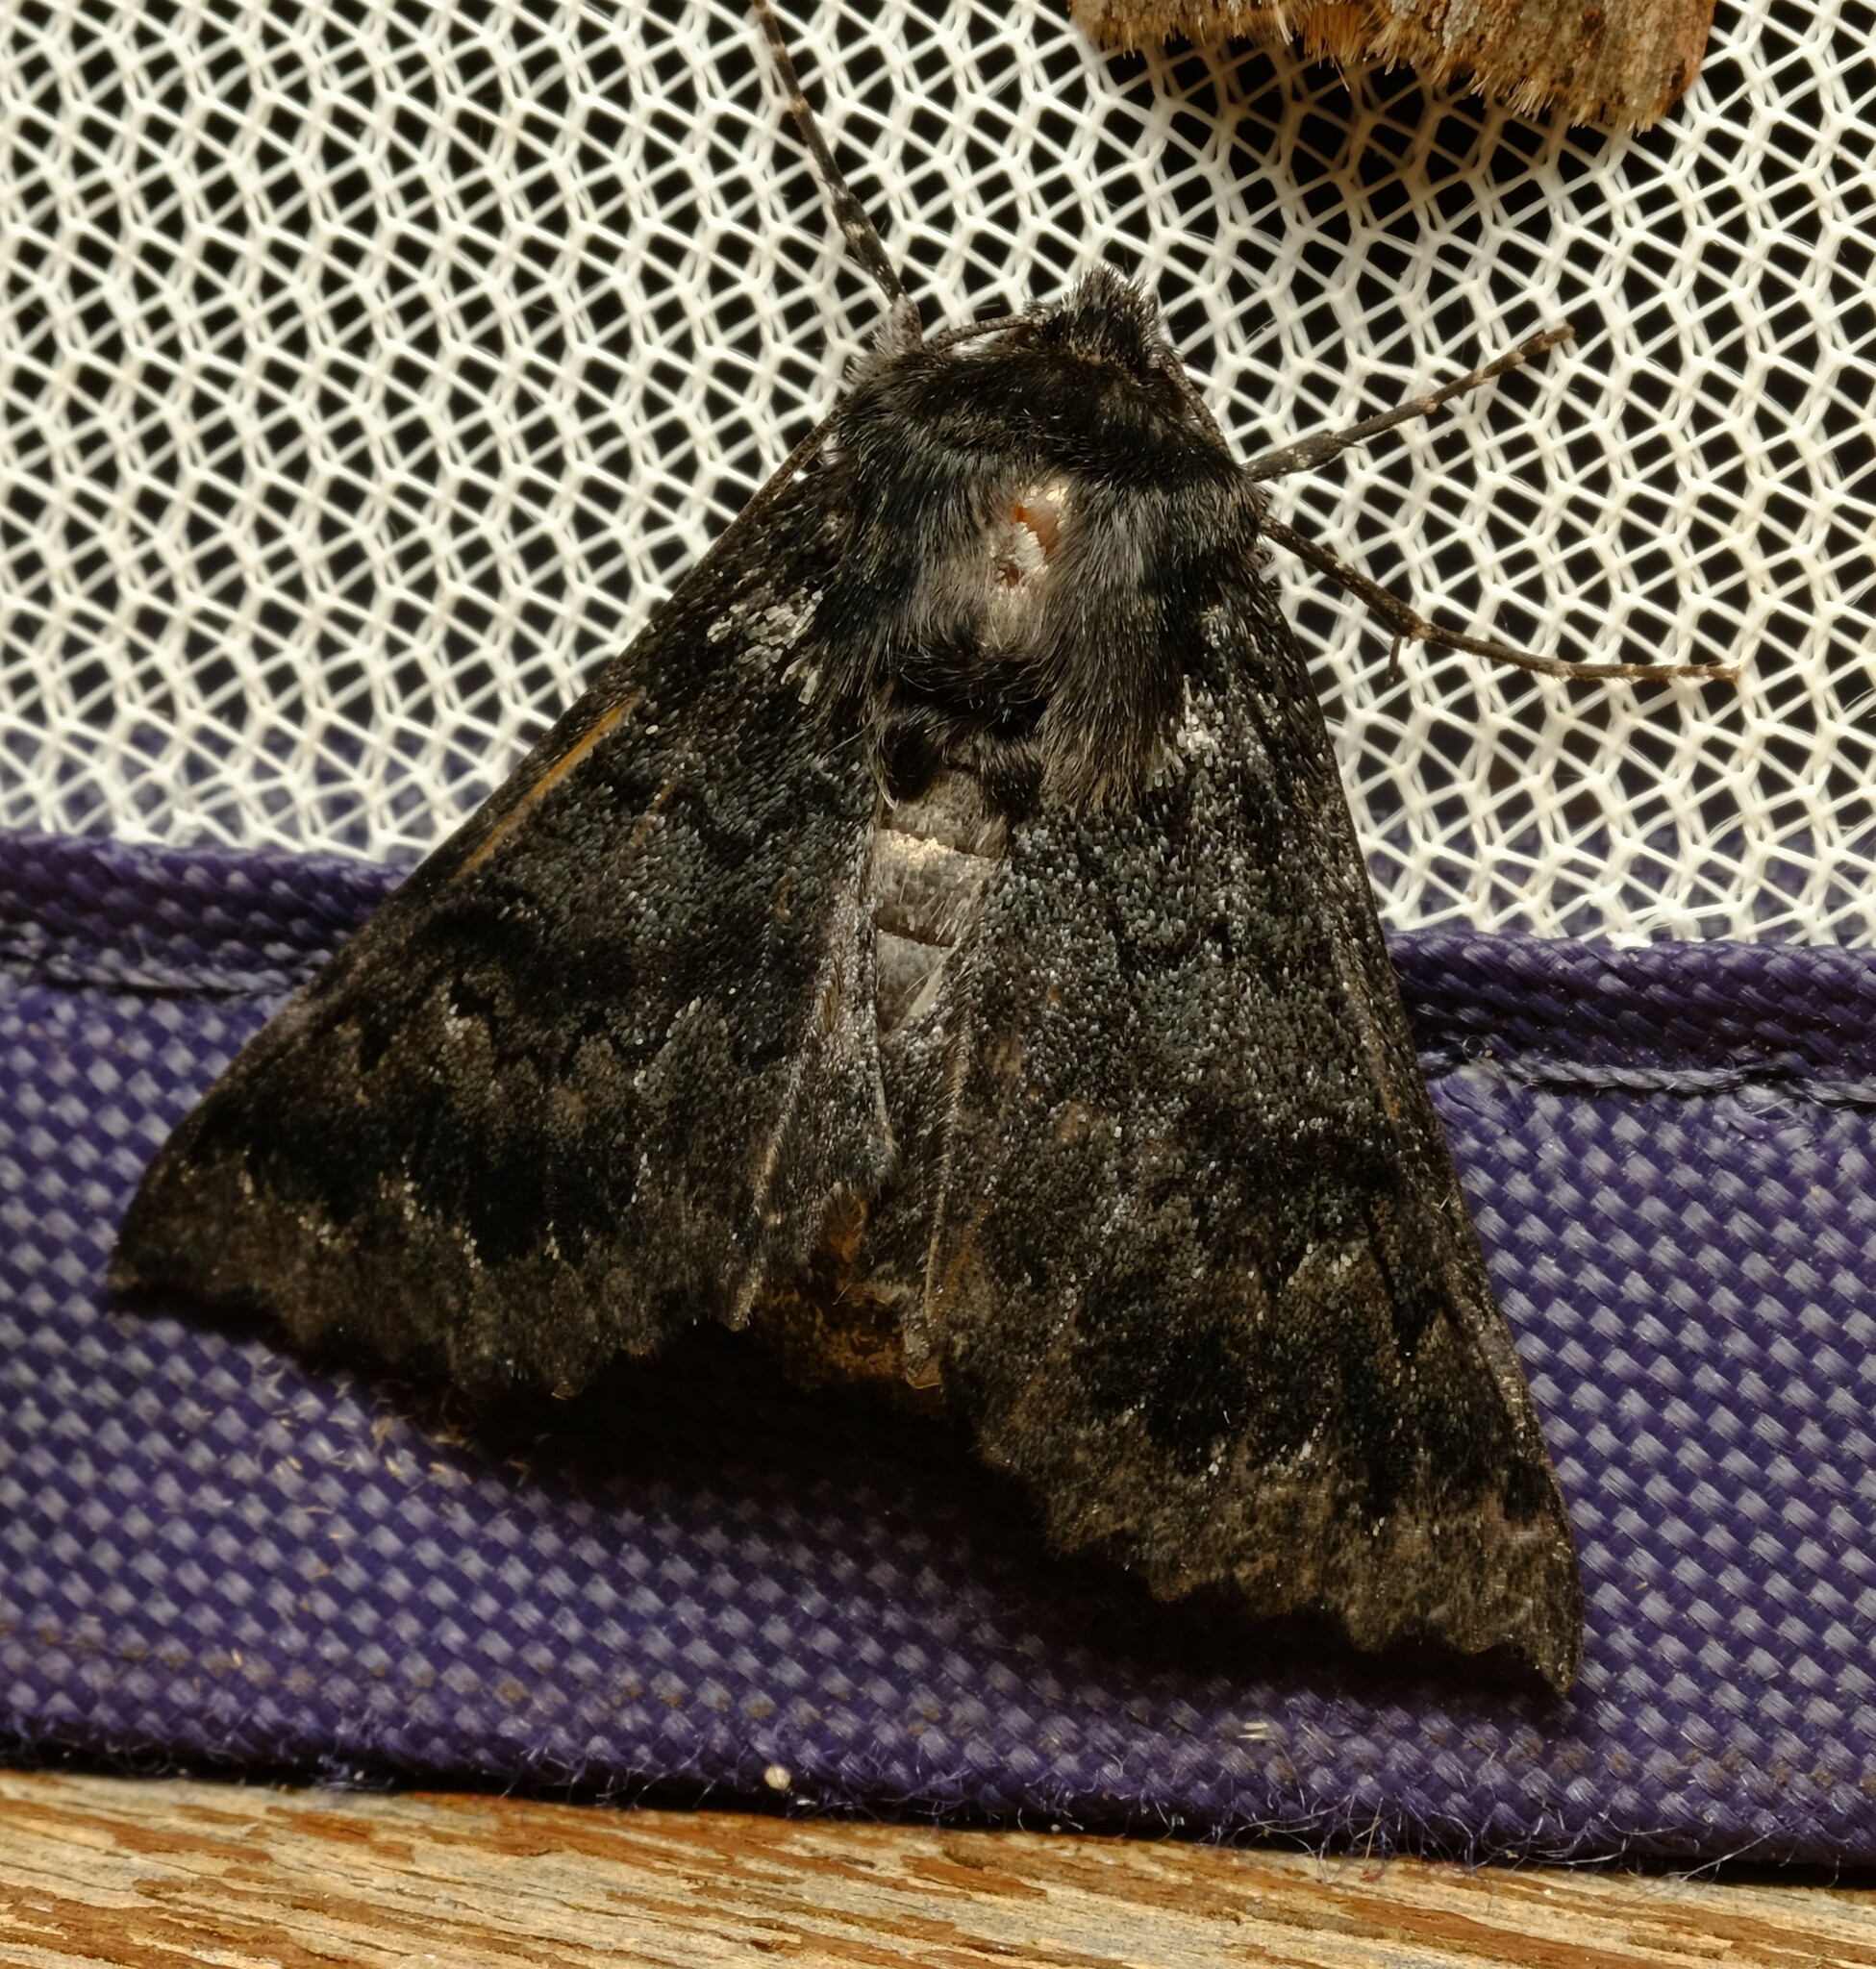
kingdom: Animalia
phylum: Arthropoda
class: Insecta
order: Lepidoptera
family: Geometridae
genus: Dinophalus
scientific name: Dinophalus incongrua
